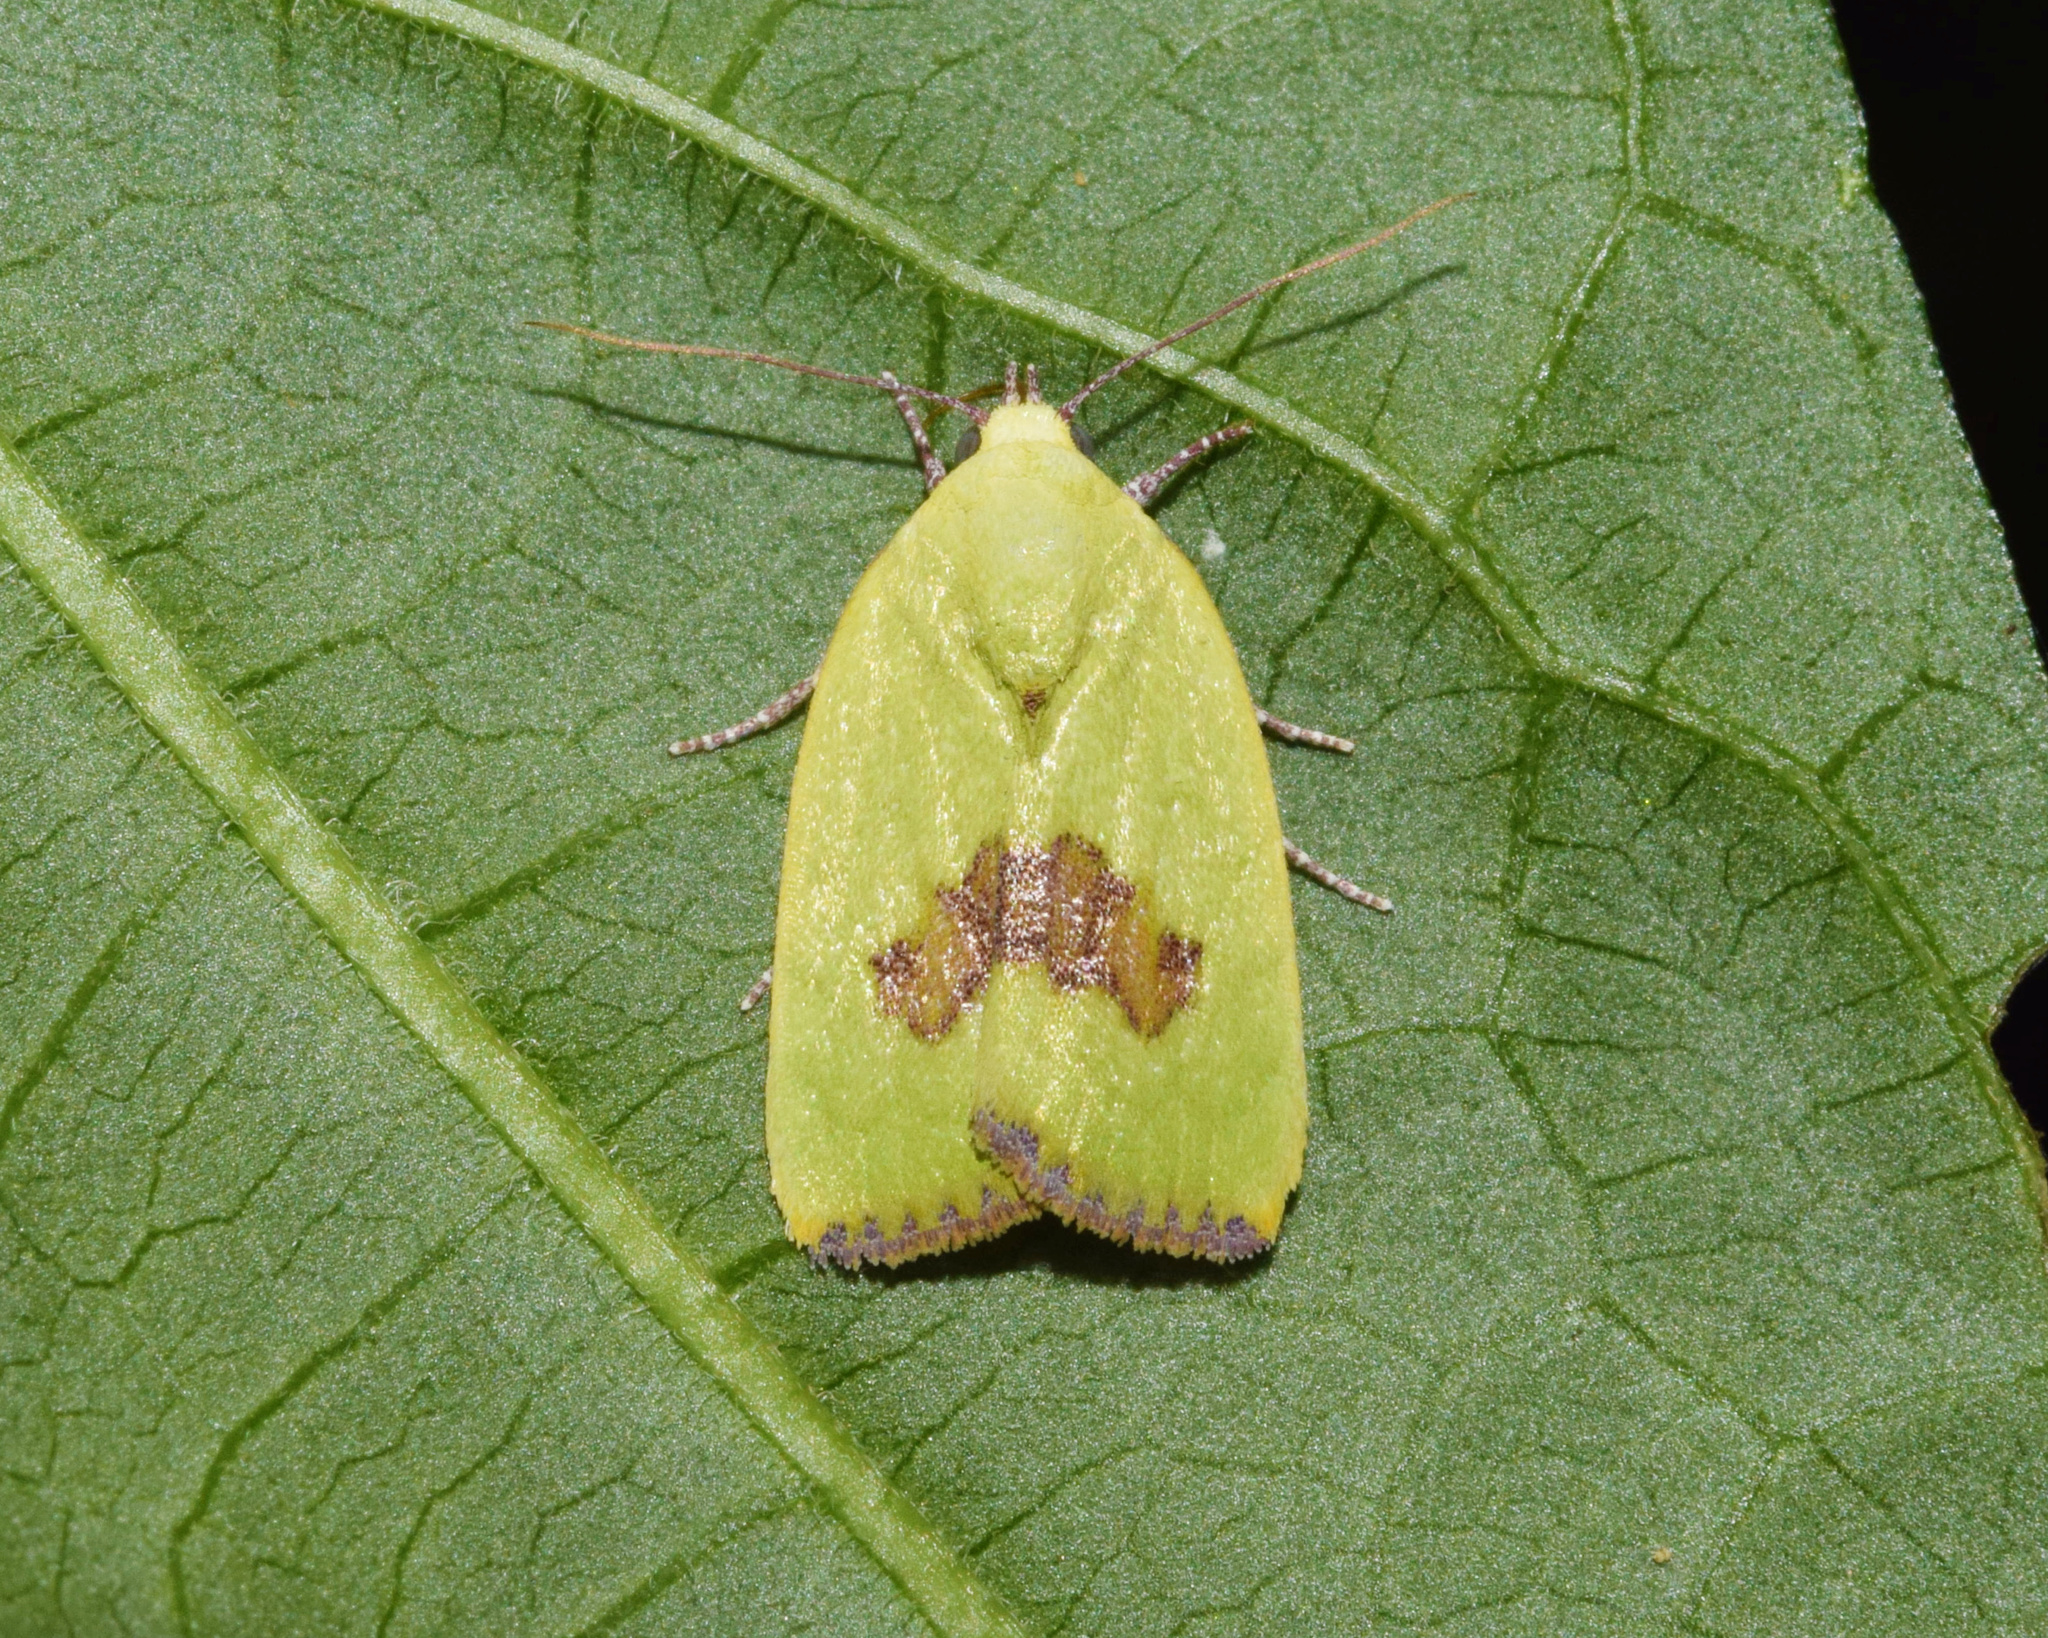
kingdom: Animalia
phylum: Arthropoda
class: Insecta
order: Lepidoptera
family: Nolidae
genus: Earias
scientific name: Earias biplaga
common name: Spiny bollworm
